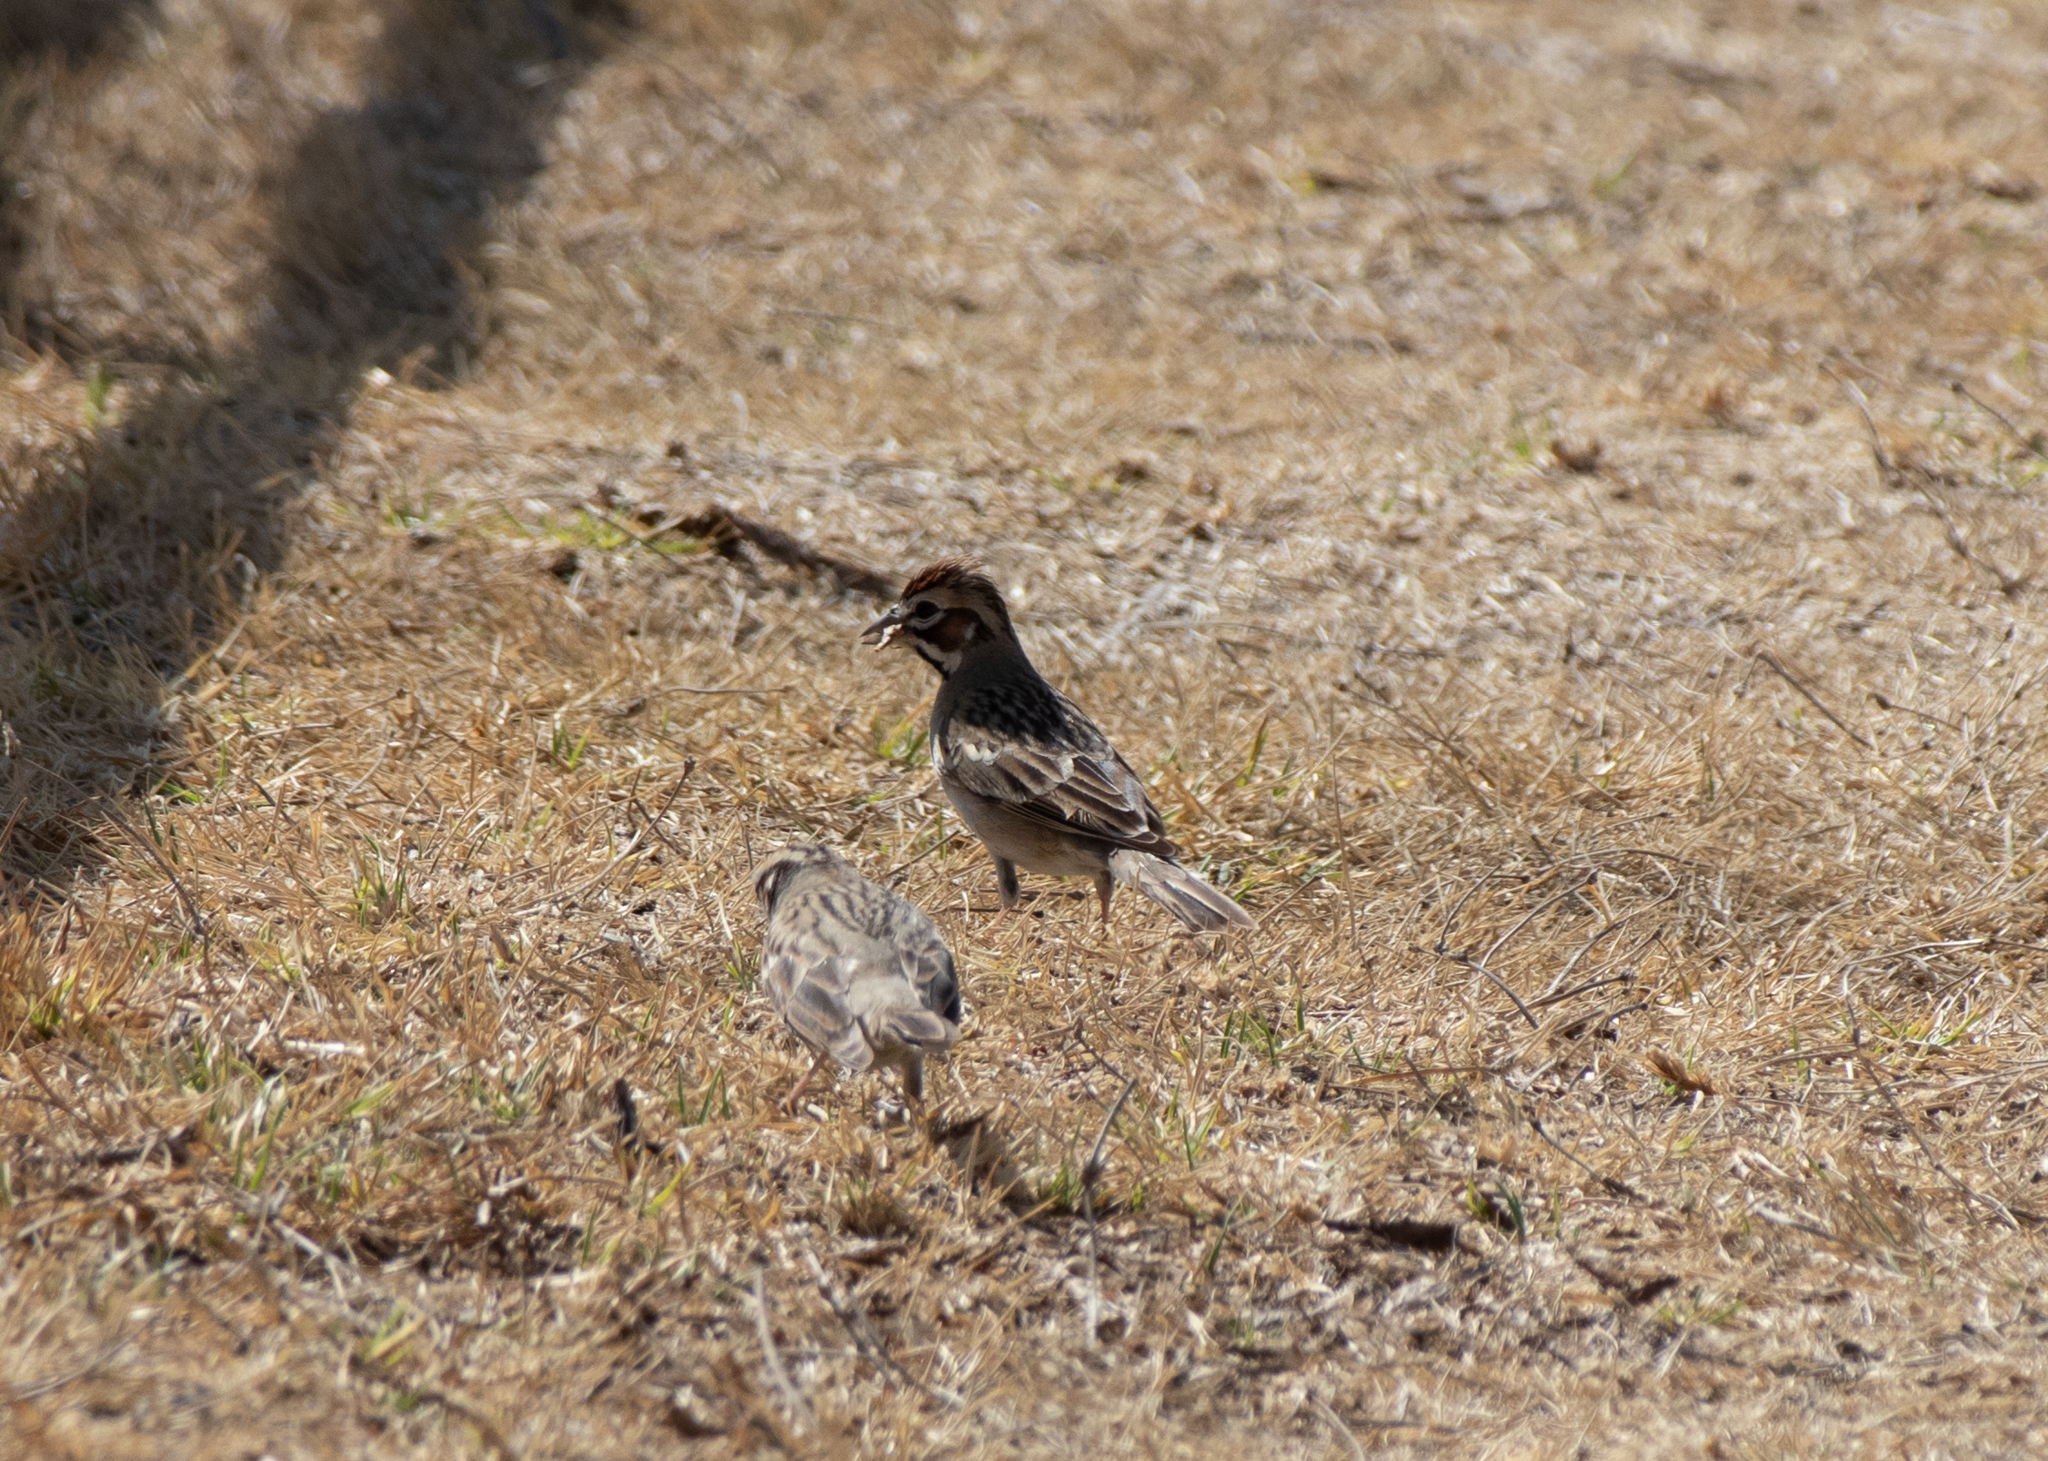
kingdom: Animalia
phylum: Chordata
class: Aves
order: Passeriformes
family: Passerellidae
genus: Chondestes
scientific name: Chondestes grammacus
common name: Lark sparrow
